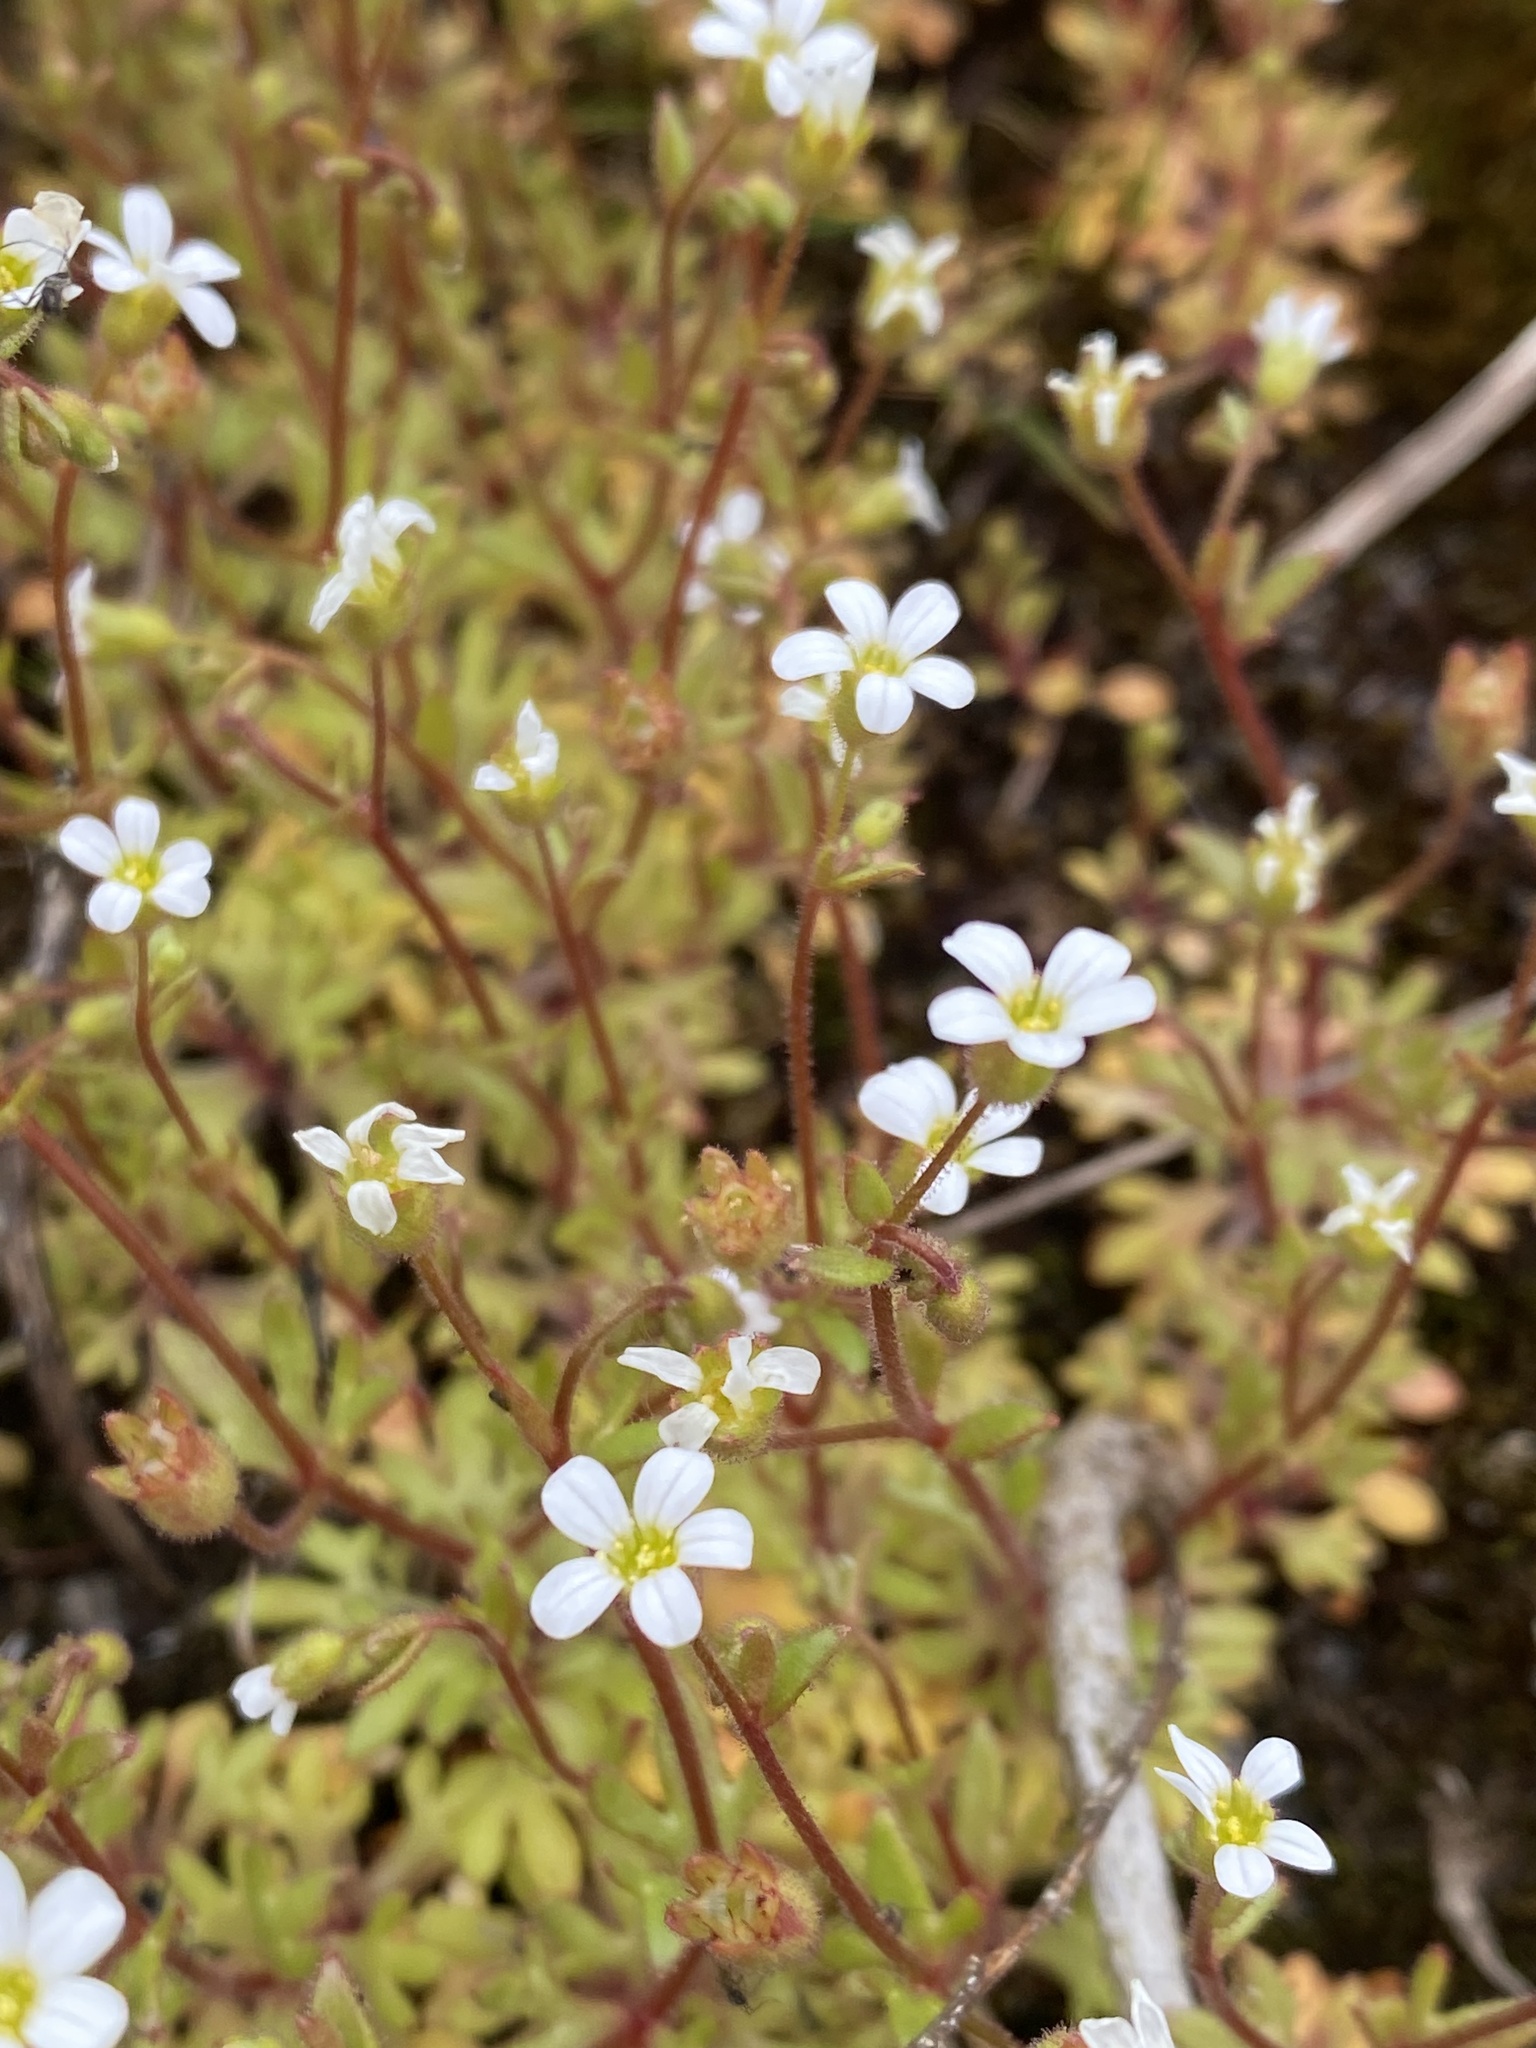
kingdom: Plantae
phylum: Tracheophyta
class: Magnoliopsida
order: Saxifragales
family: Saxifragaceae
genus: Saxifraga
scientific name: Saxifraga tridactylites
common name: Rue-leaved saxifrage
